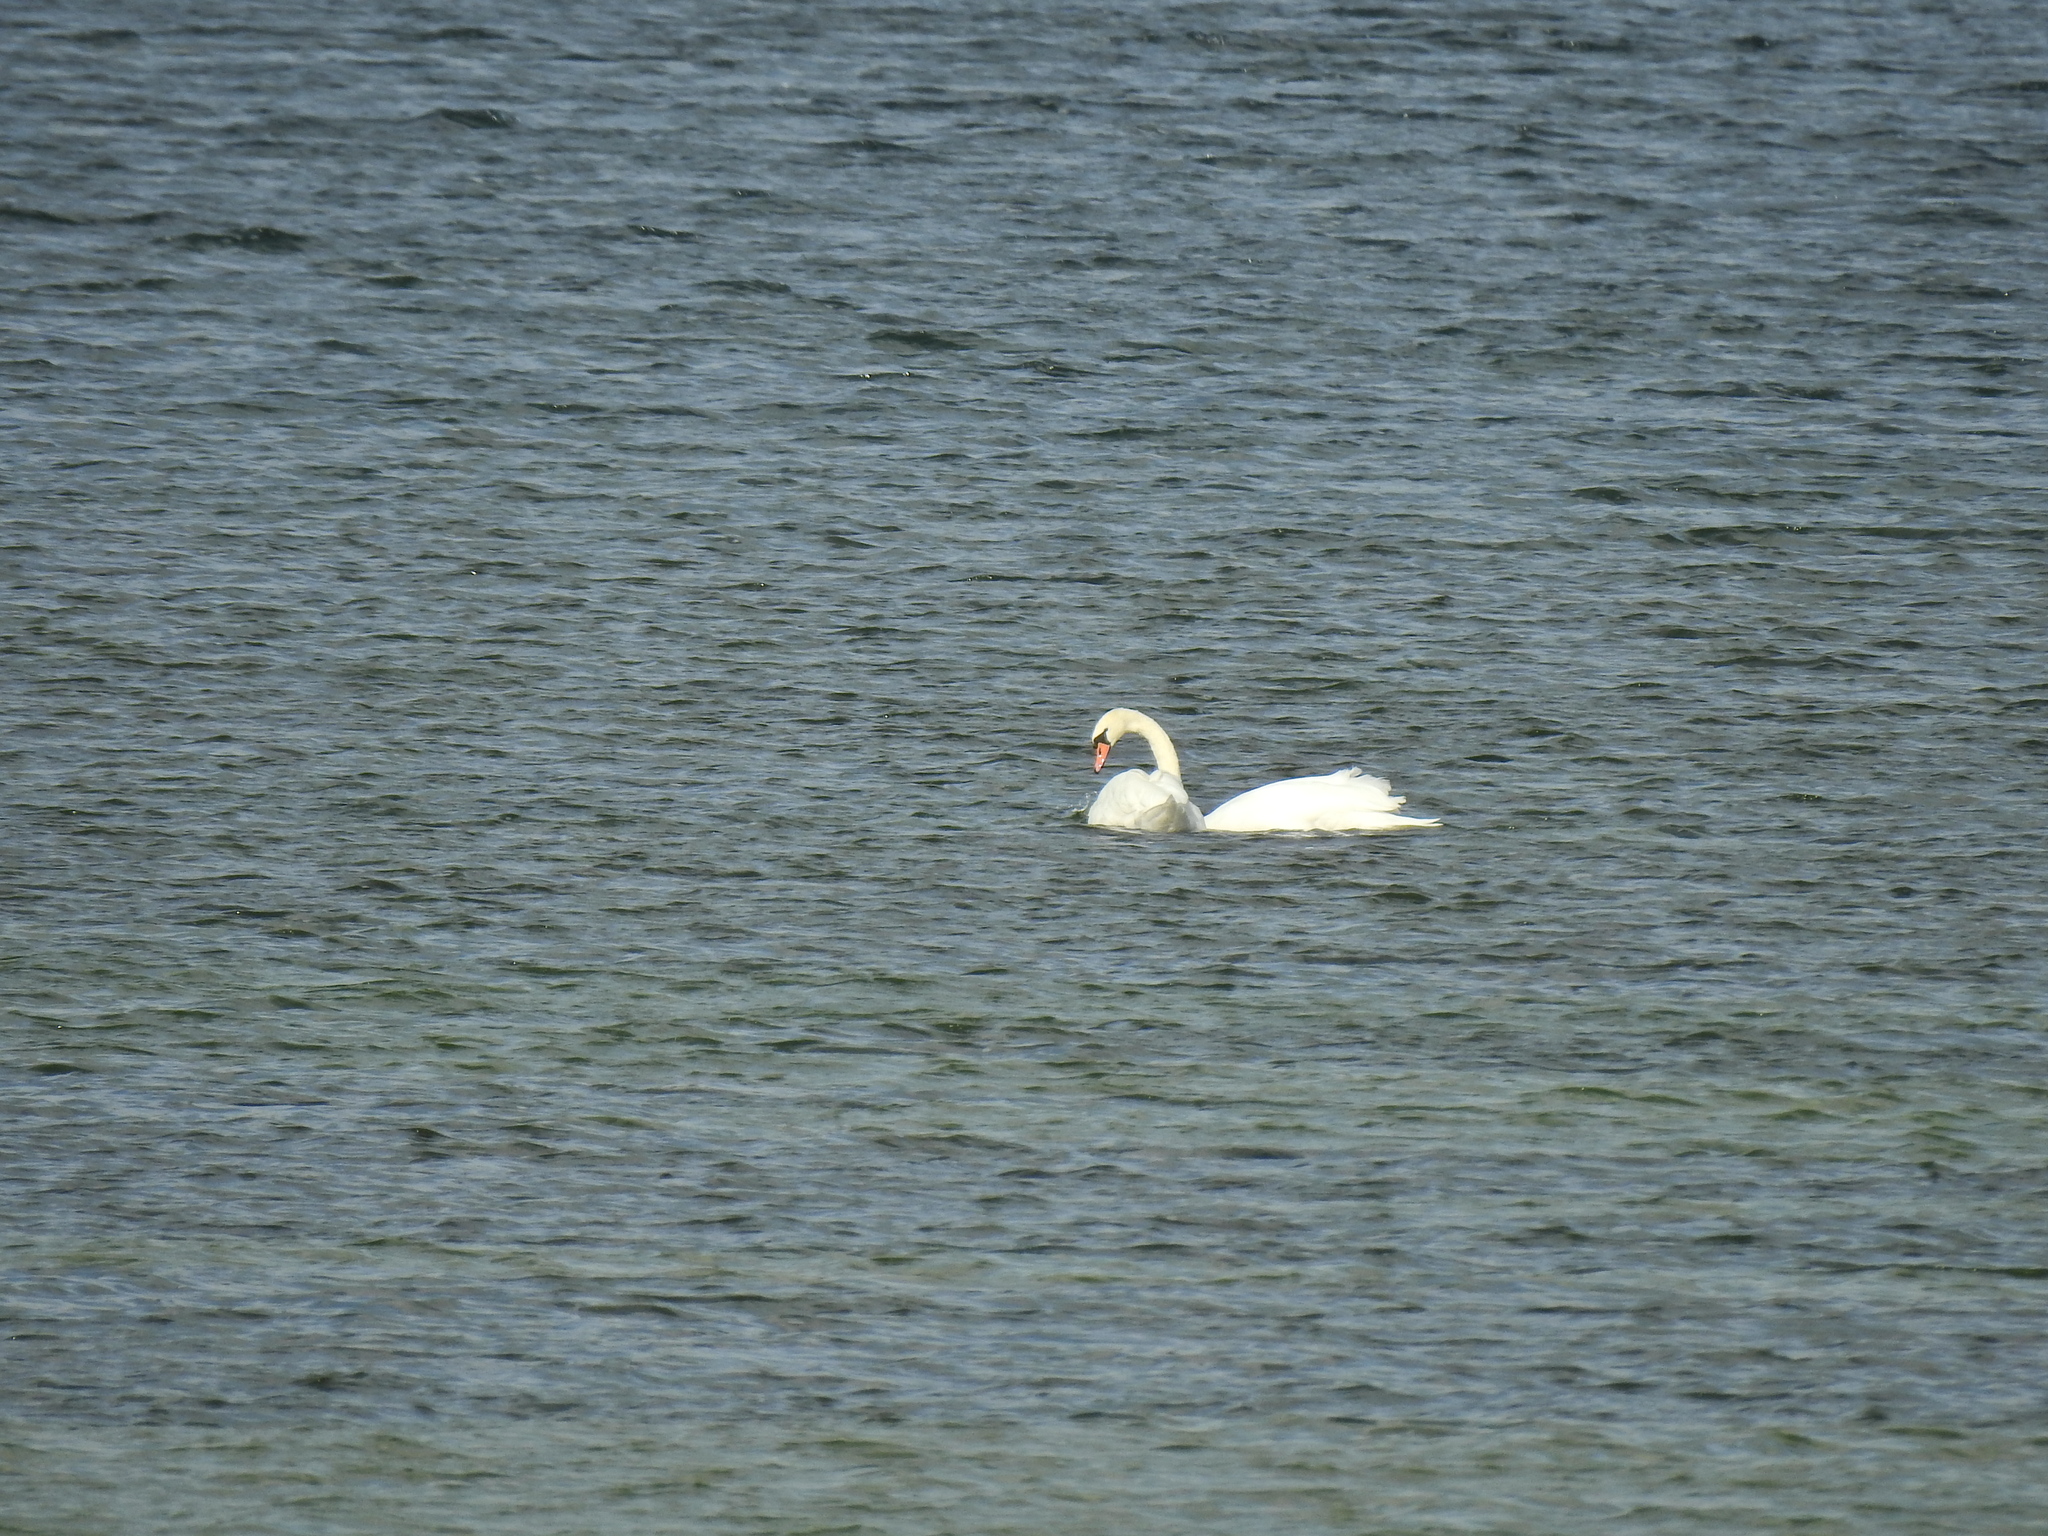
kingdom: Animalia
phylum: Chordata
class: Aves
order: Anseriformes
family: Anatidae
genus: Cygnus
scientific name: Cygnus olor
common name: Mute swan
